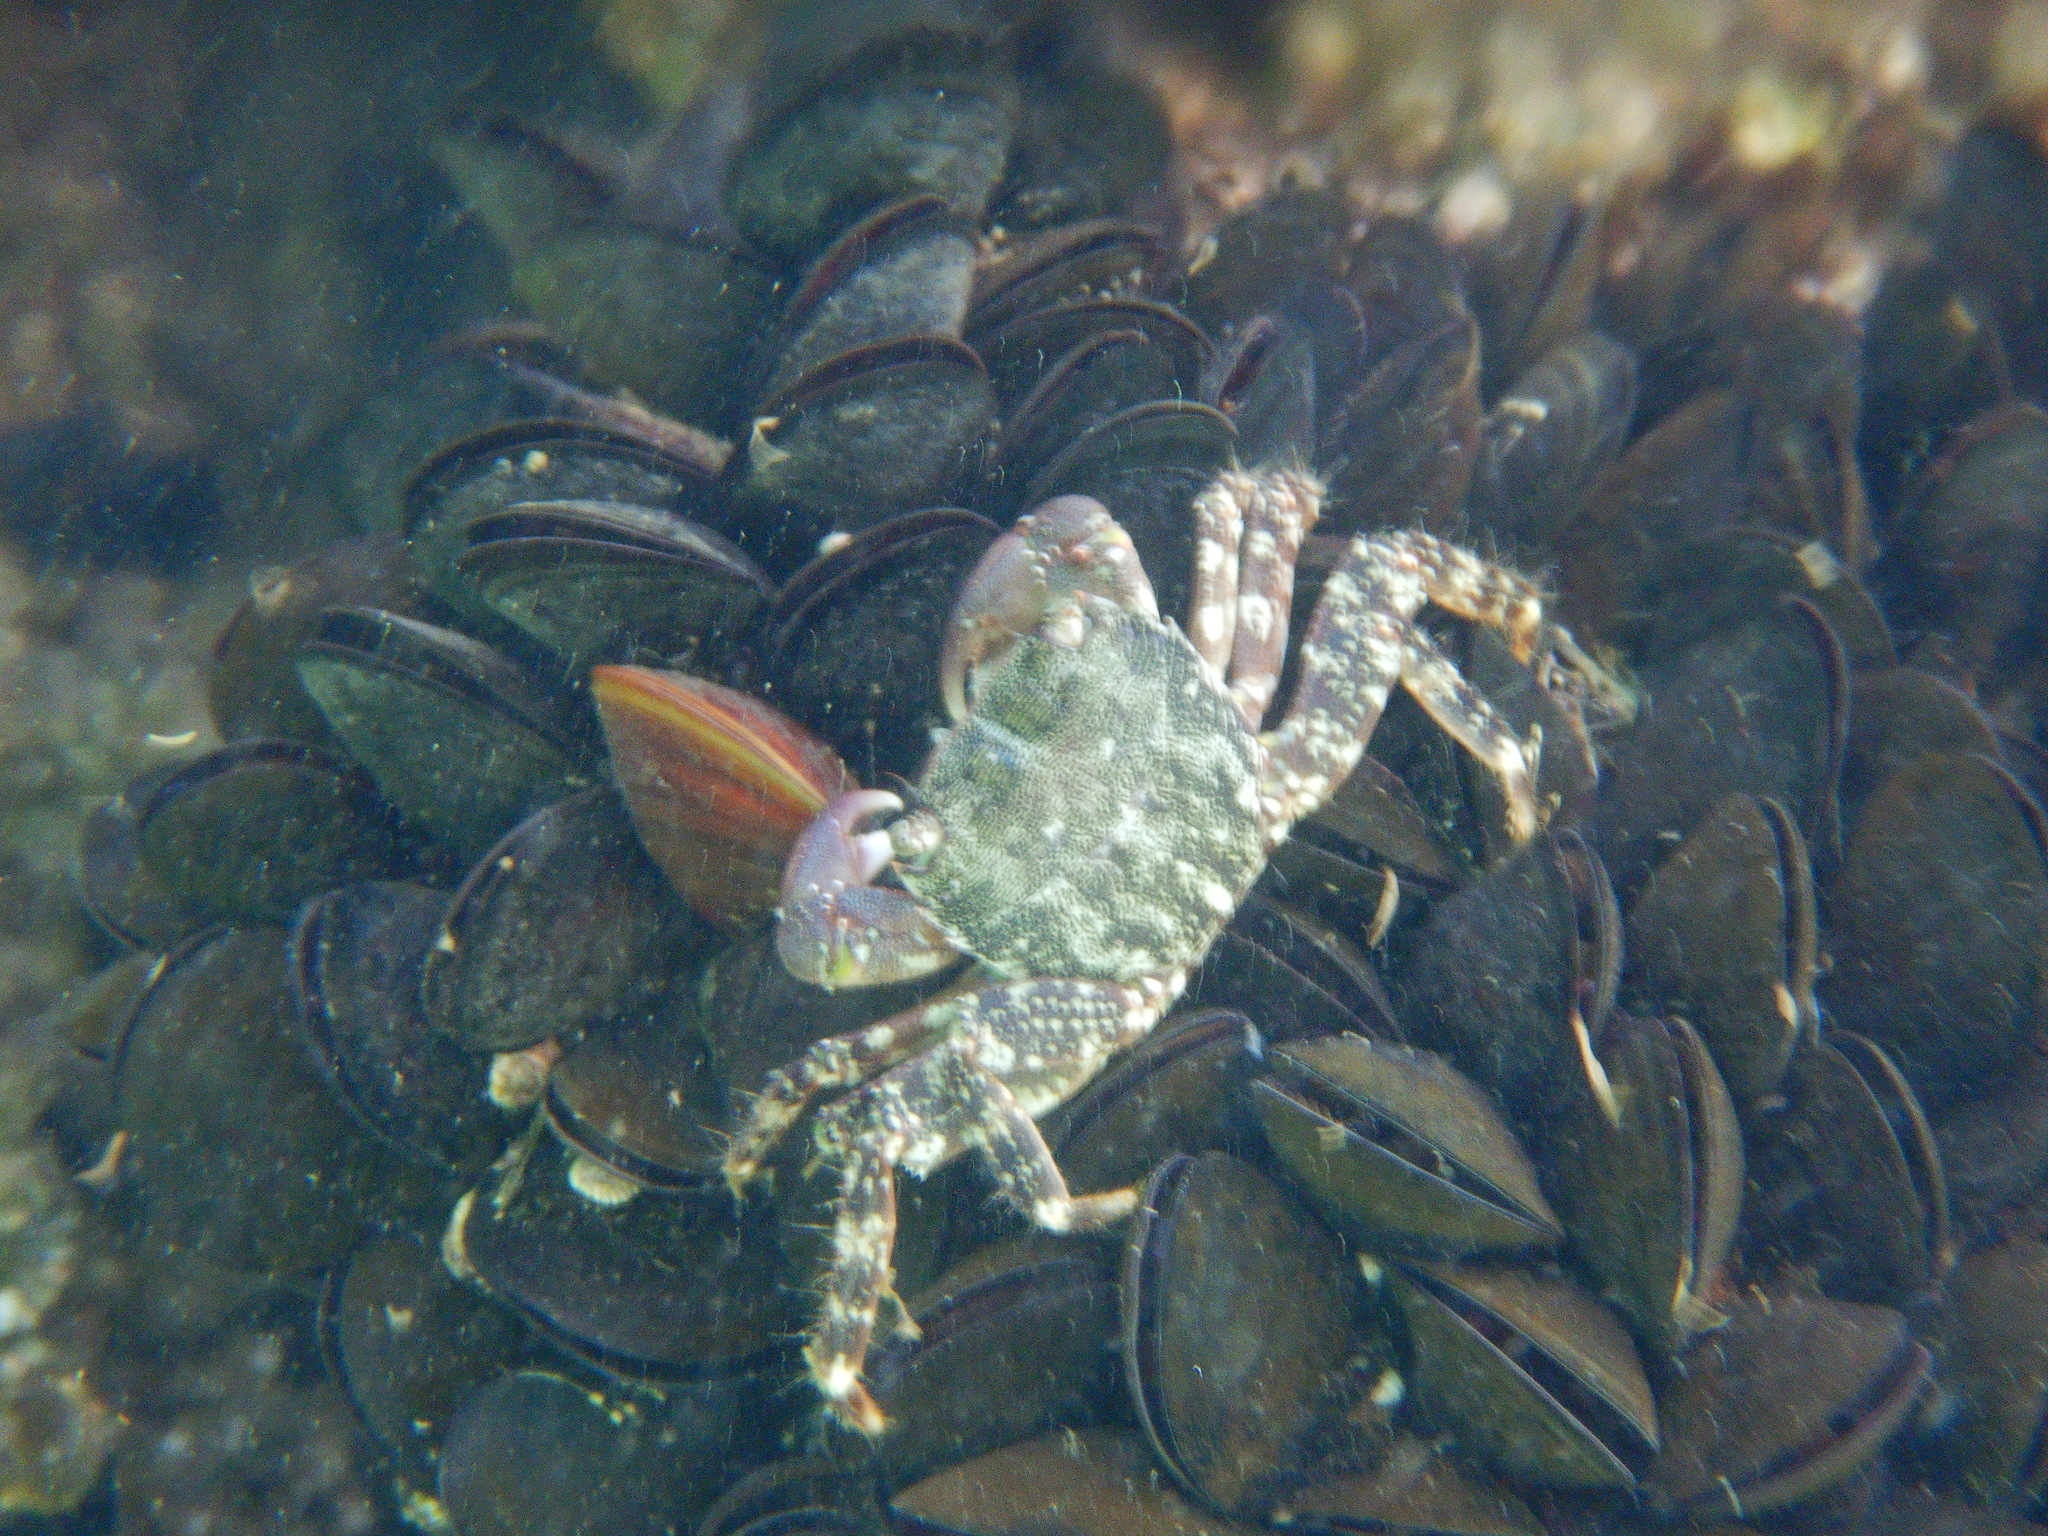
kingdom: Animalia
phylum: Arthropoda
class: Malacostraca
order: Decapoda
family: Grapsidae
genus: Pachygrapsus
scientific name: Pachygrapsus marmoratus
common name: Marbled rock crab
